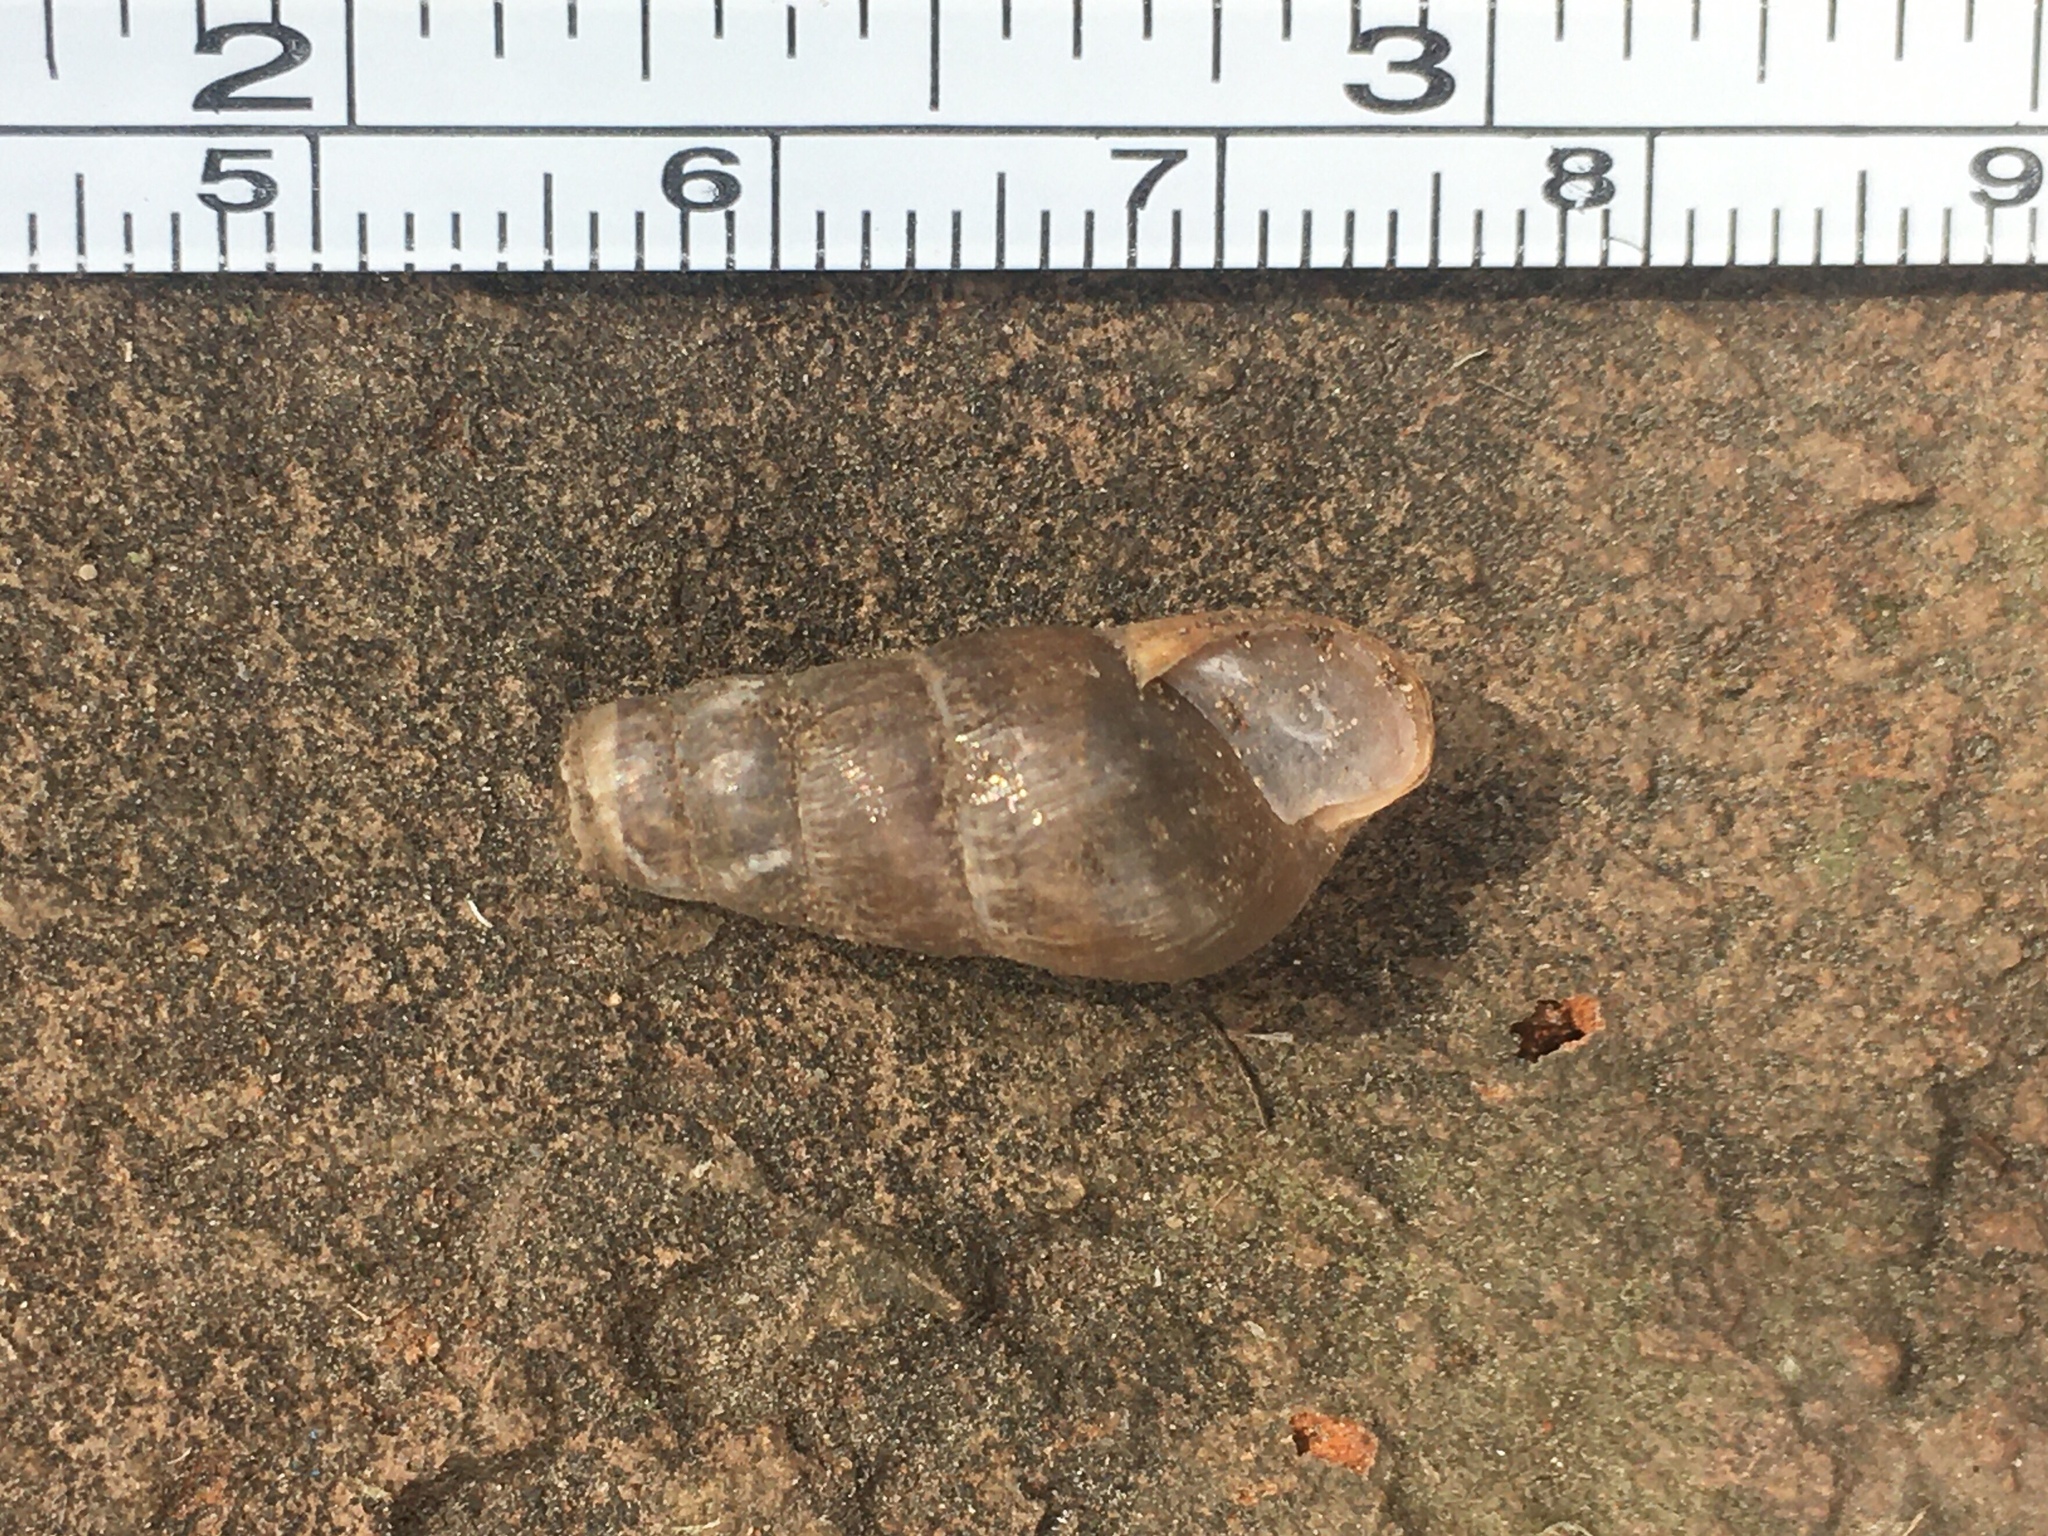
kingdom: Animalia
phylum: Mollusca
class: Gastropoda
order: Stylommatophora
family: Achatinidae
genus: Rumina
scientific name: Rumina decollata
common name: Decollate snail
